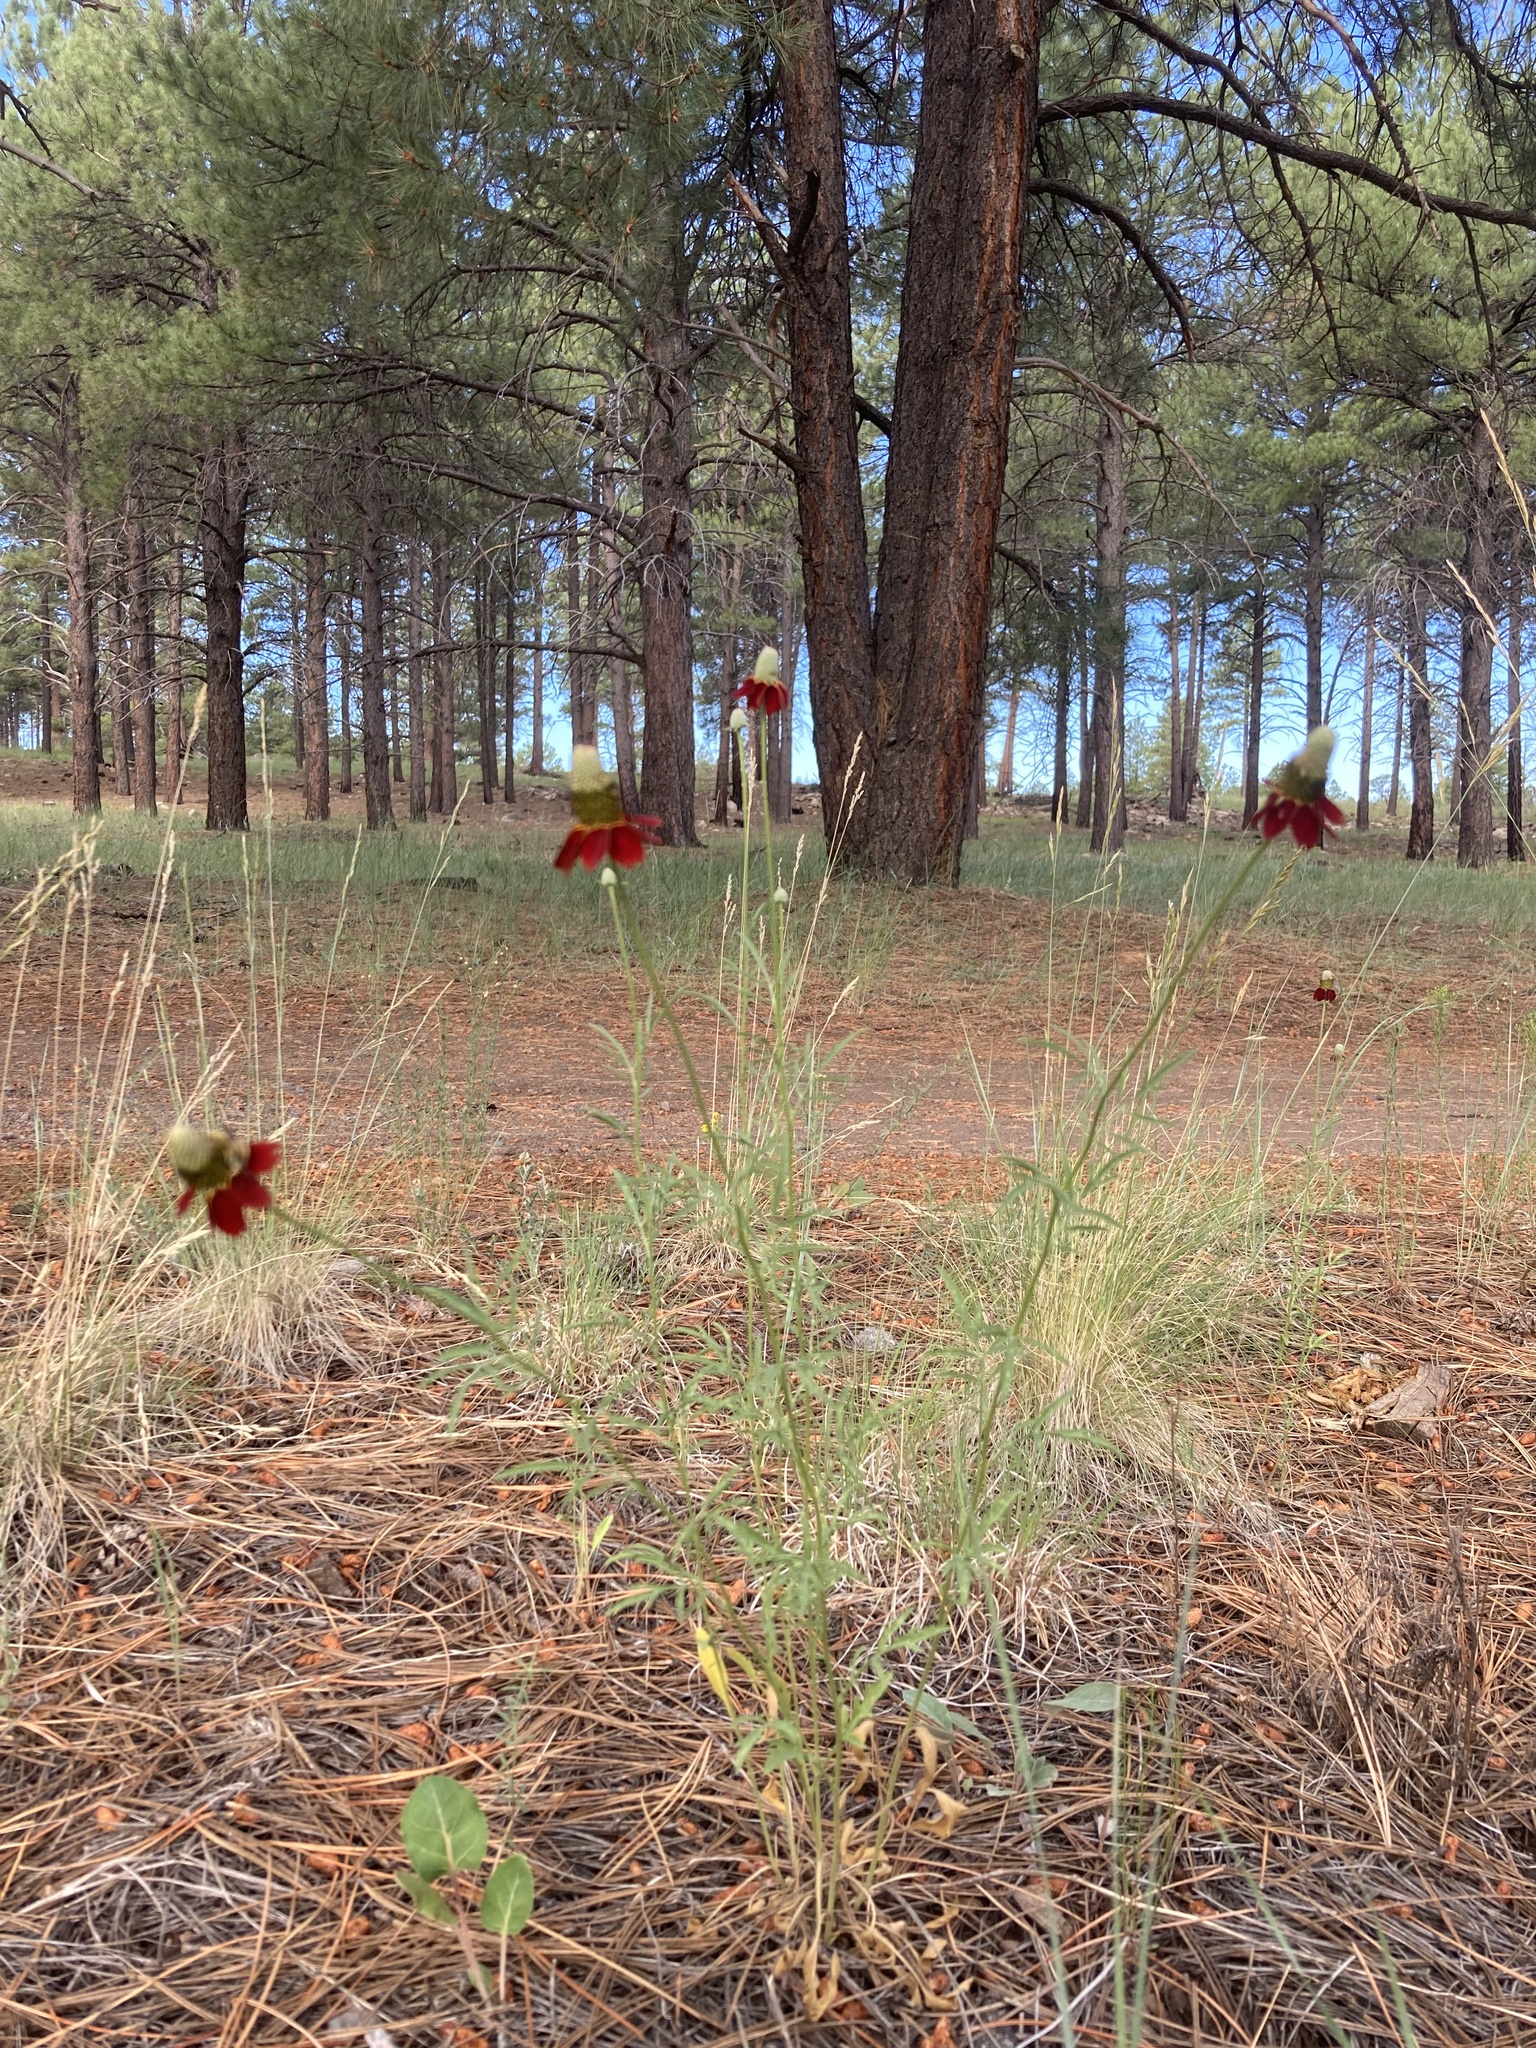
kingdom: Plantae
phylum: Tracheophyta
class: Magnoliopsida
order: Asterales
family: Asteraceae
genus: Ratibida
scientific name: Ratibida columnifera
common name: Prairie coneflower
